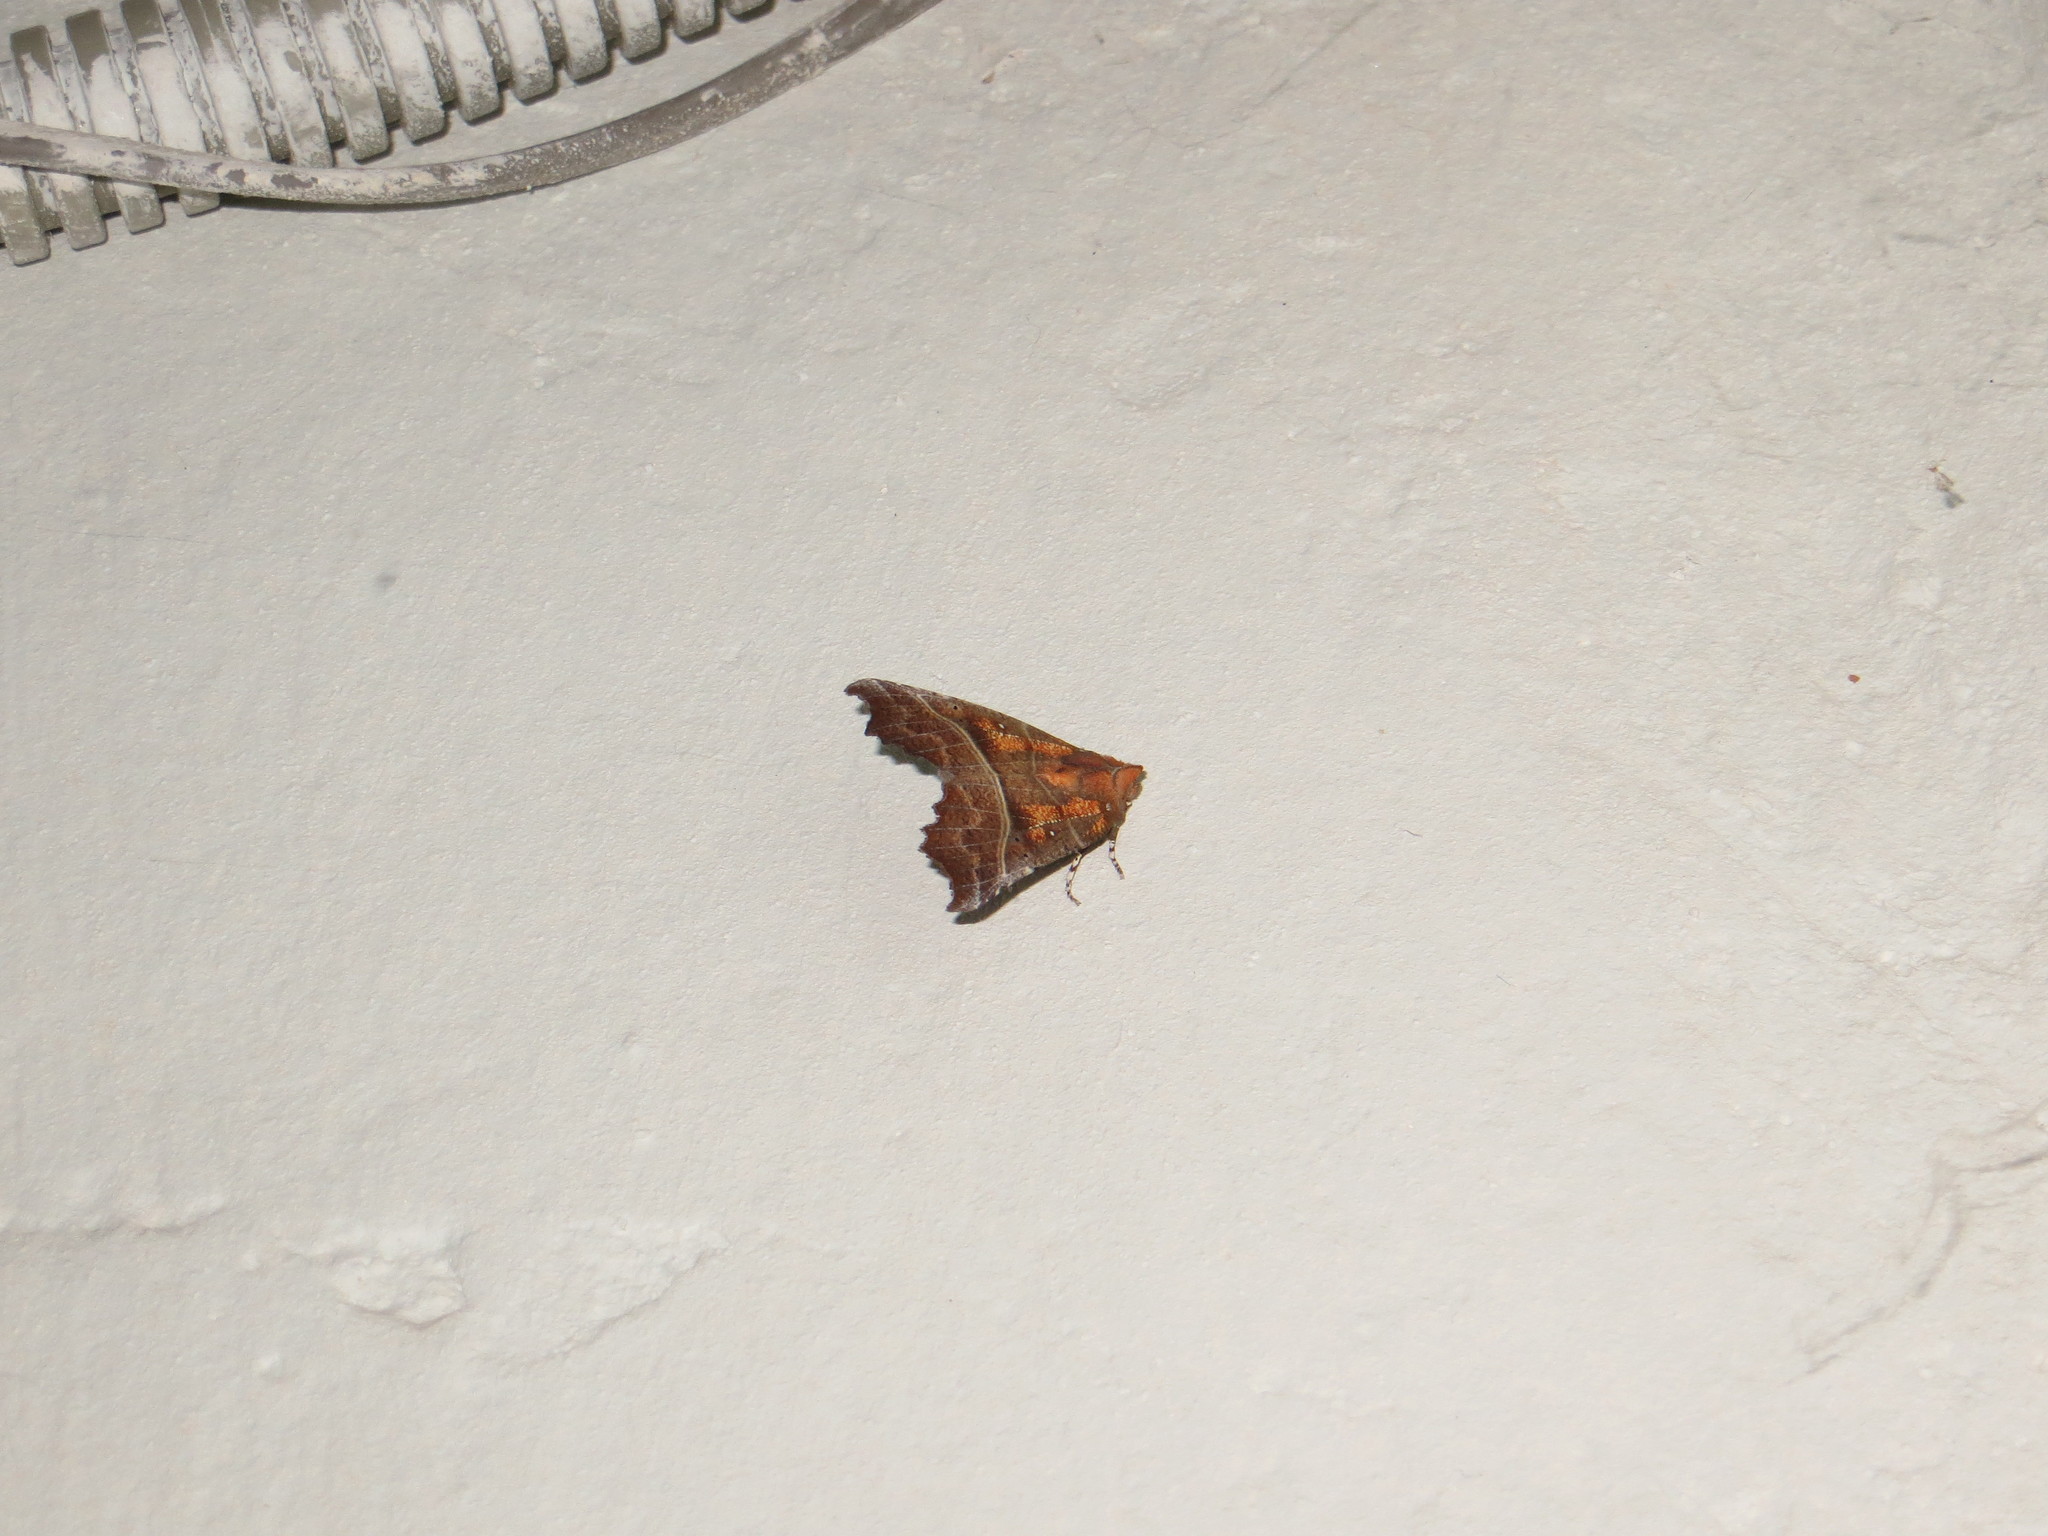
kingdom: Animalia
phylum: Arthropoda
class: Insecta
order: Lepidoptera
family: Erebidae
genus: Scoliopteryx
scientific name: Scoliopteryx libatrix
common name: Herald
